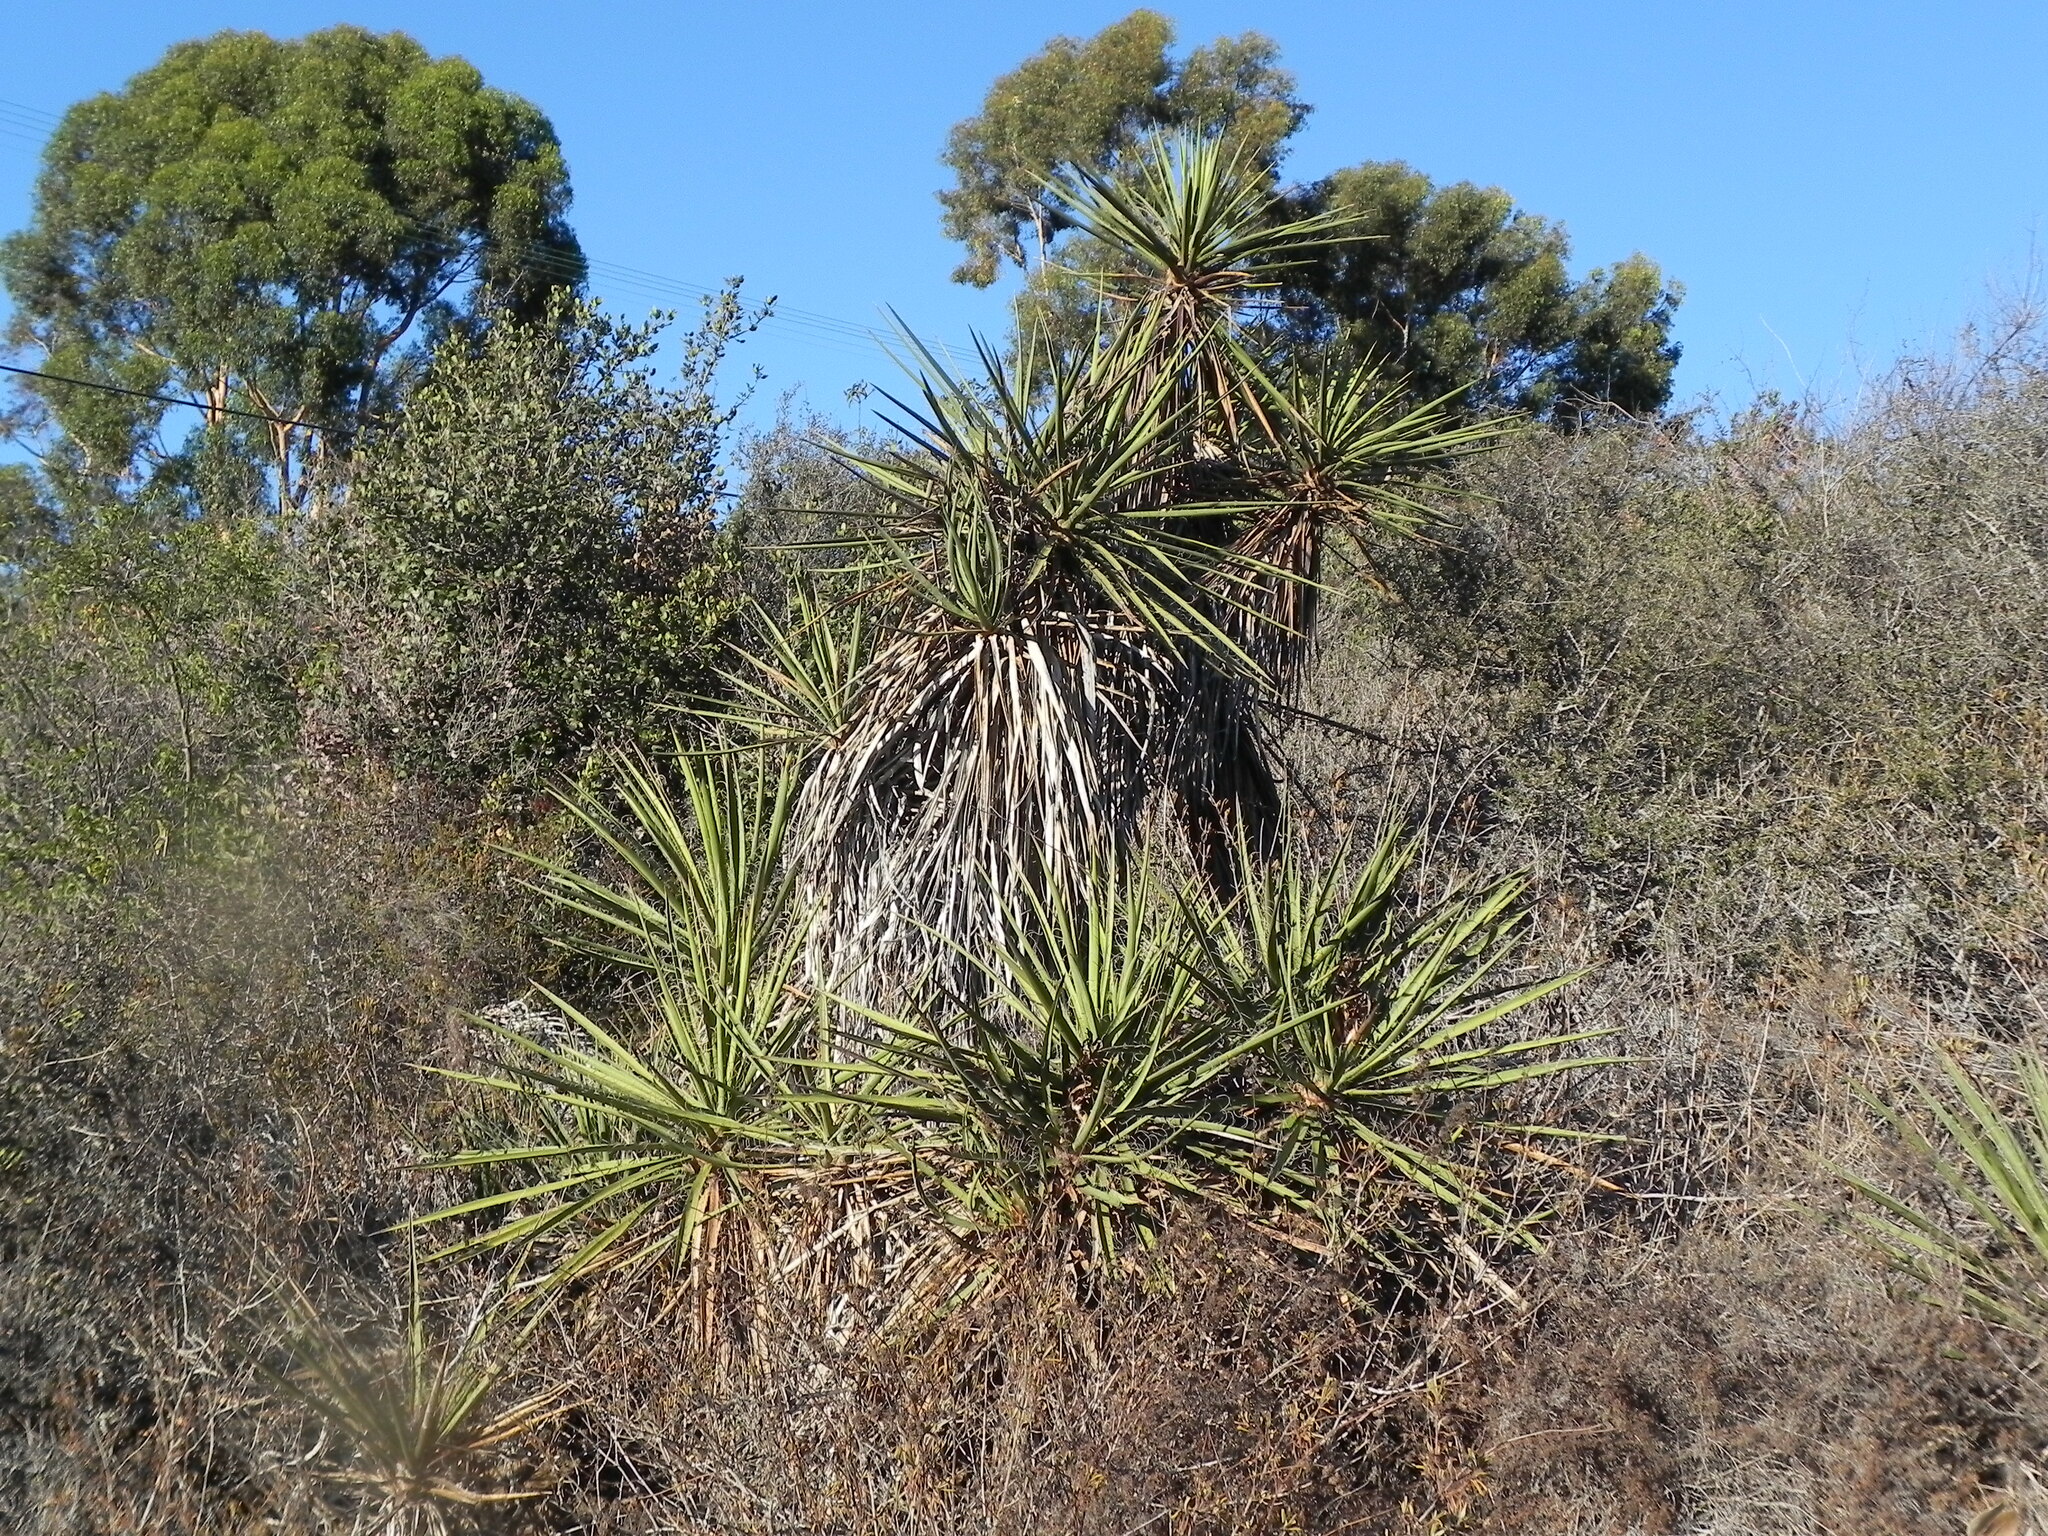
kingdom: Plantae
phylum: Tracheophyta
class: Liliopsida
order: Asparagales
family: Asparagaceae
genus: Yucca
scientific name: Yucca schidigera
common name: Mojave yucca
